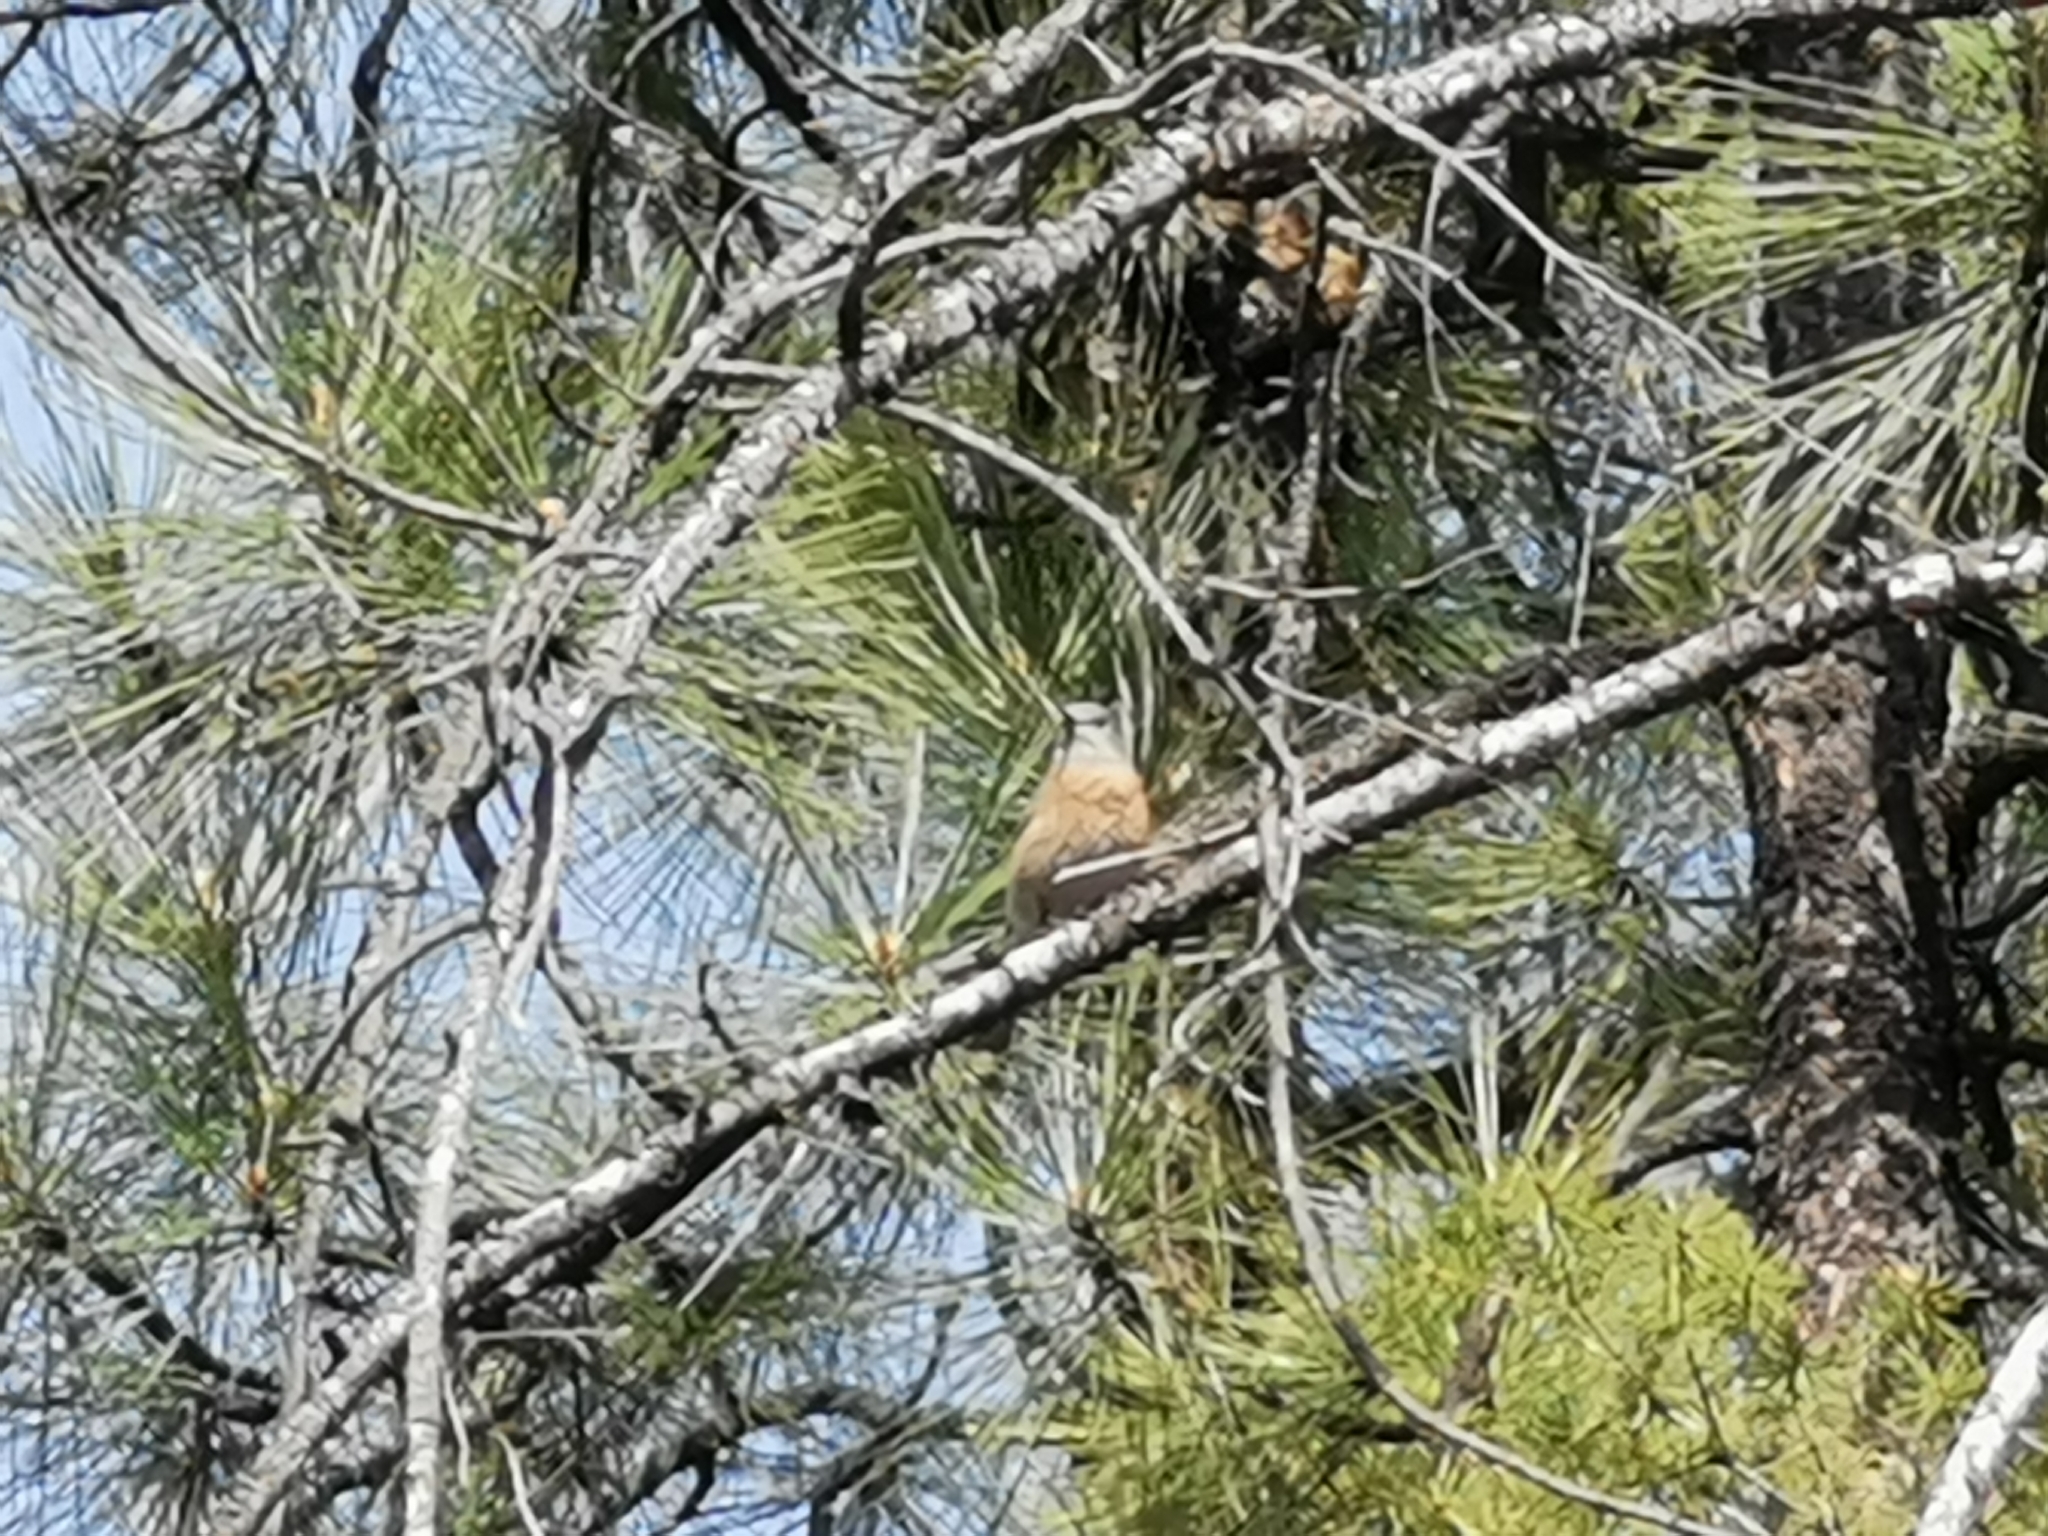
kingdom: Animalia
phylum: Chordata
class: Aves
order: Passeriformes
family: Turdidae
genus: Sialia
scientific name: Sialia mexicana
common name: Western bluebird
